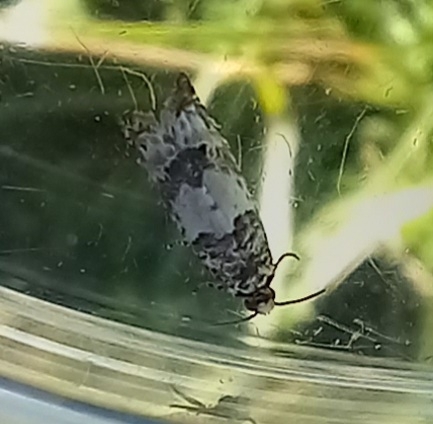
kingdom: Animalia
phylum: Arthropoda
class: Insecta
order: Lepidoptera
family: Tortricidae
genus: Epinotia
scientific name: Epinotia thapsiana
